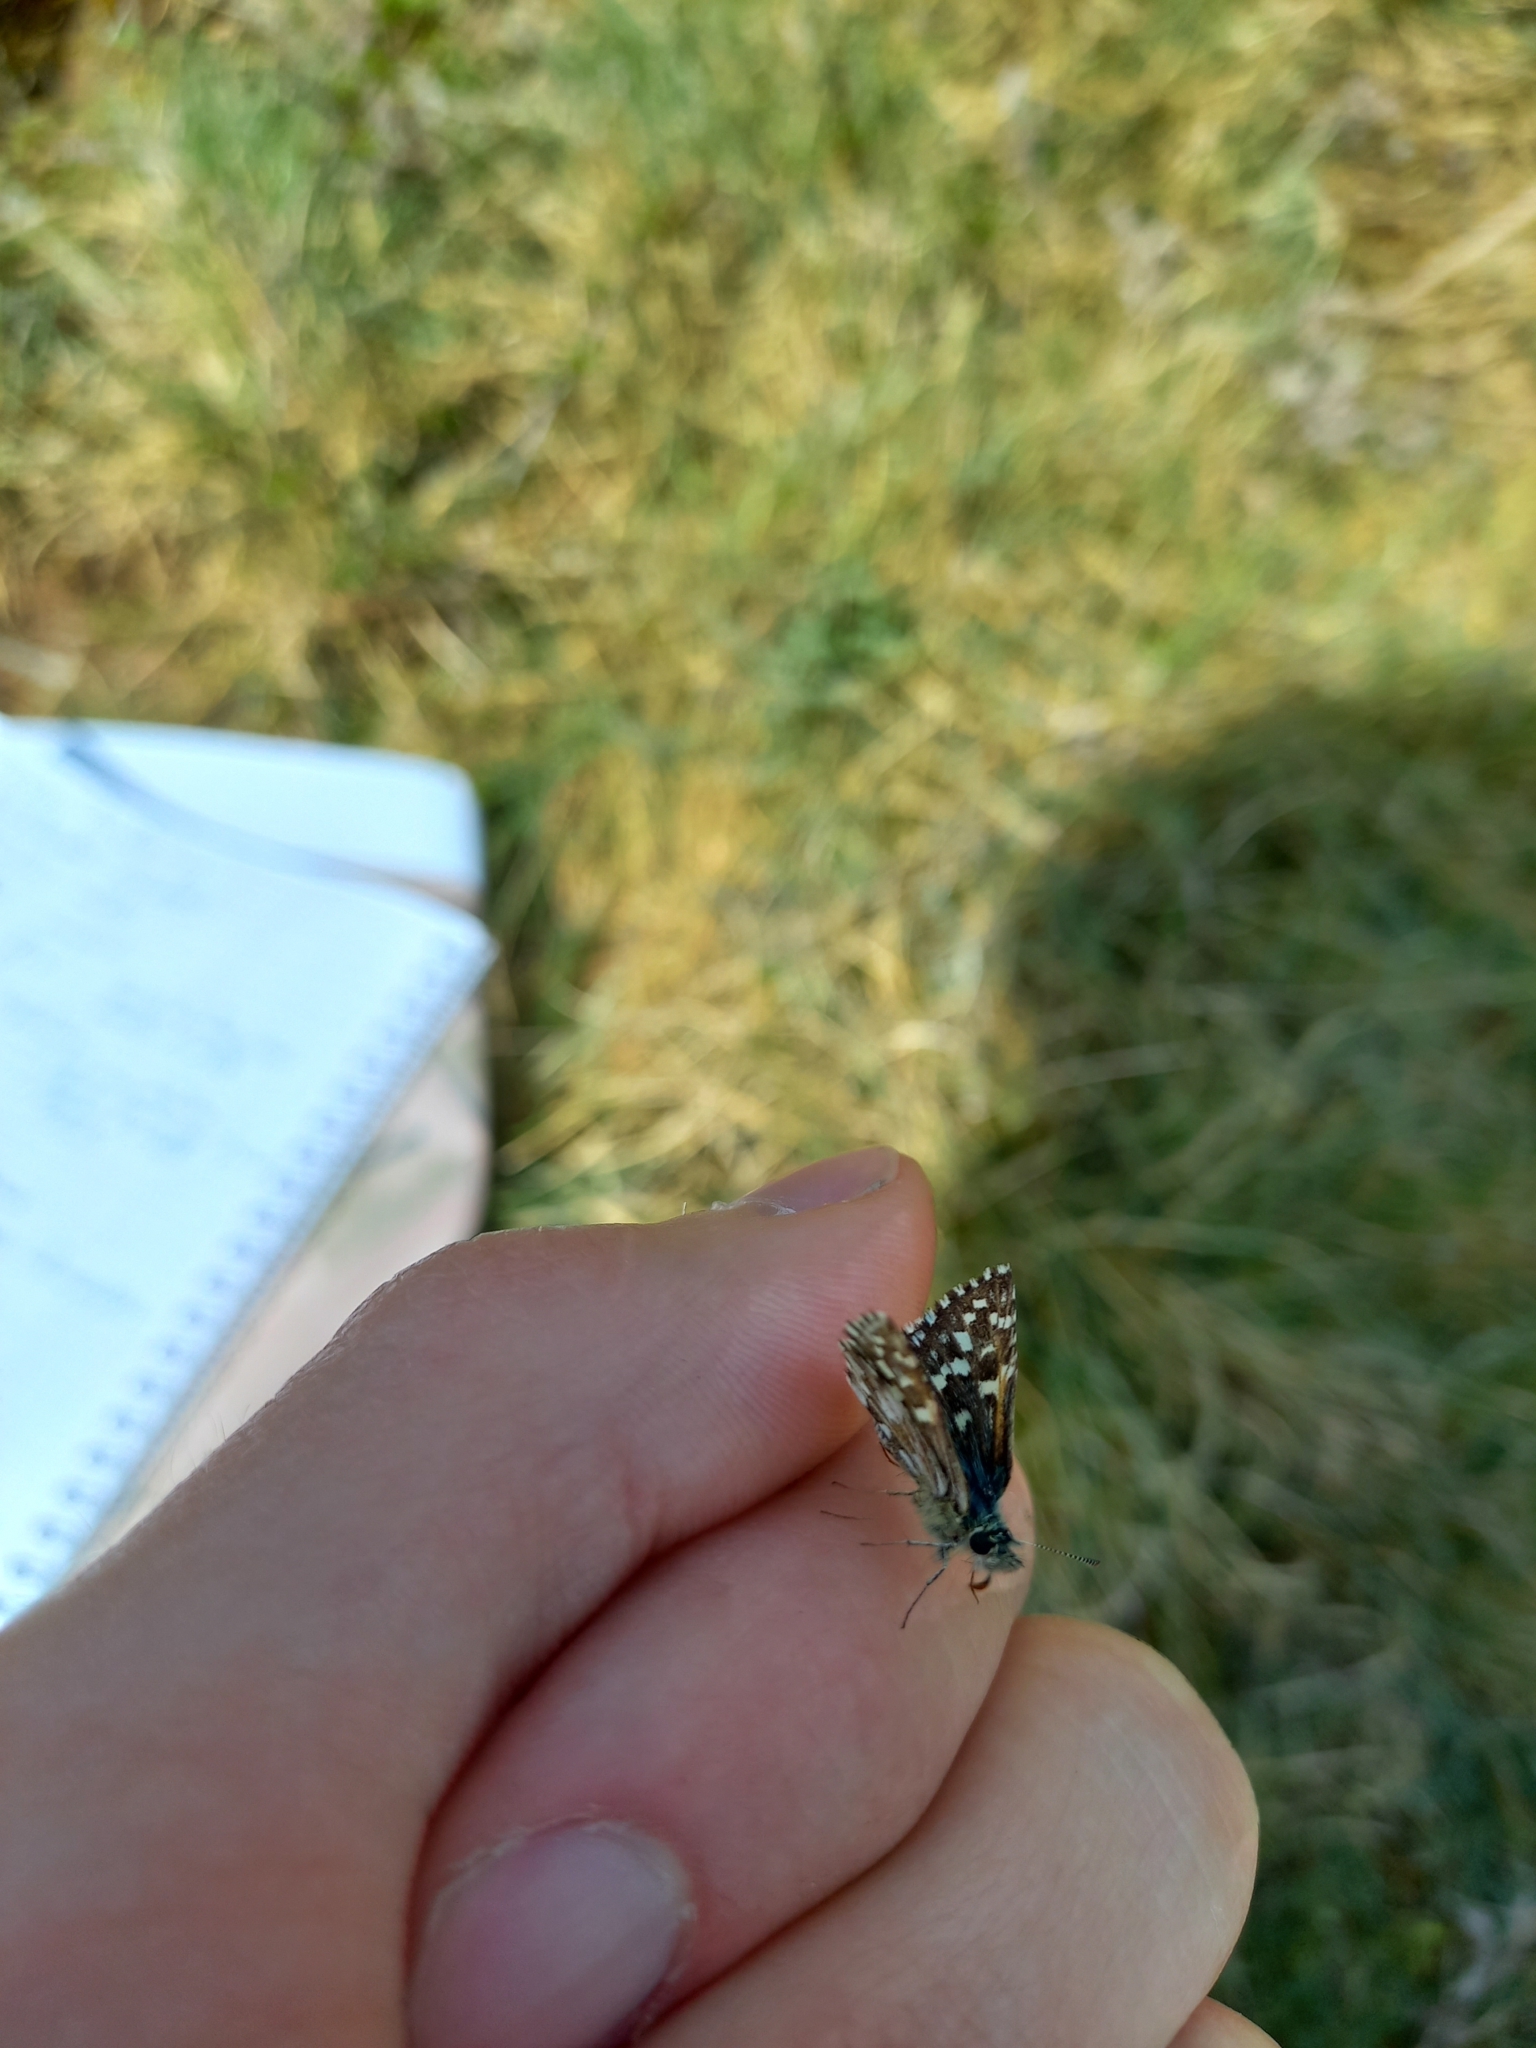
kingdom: Animalia
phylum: Arthropoda
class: Insecta
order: Lepidoptera
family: Hesperiidae
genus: Pyrgus
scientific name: Pyrgus malvae
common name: Grizzled skipper
